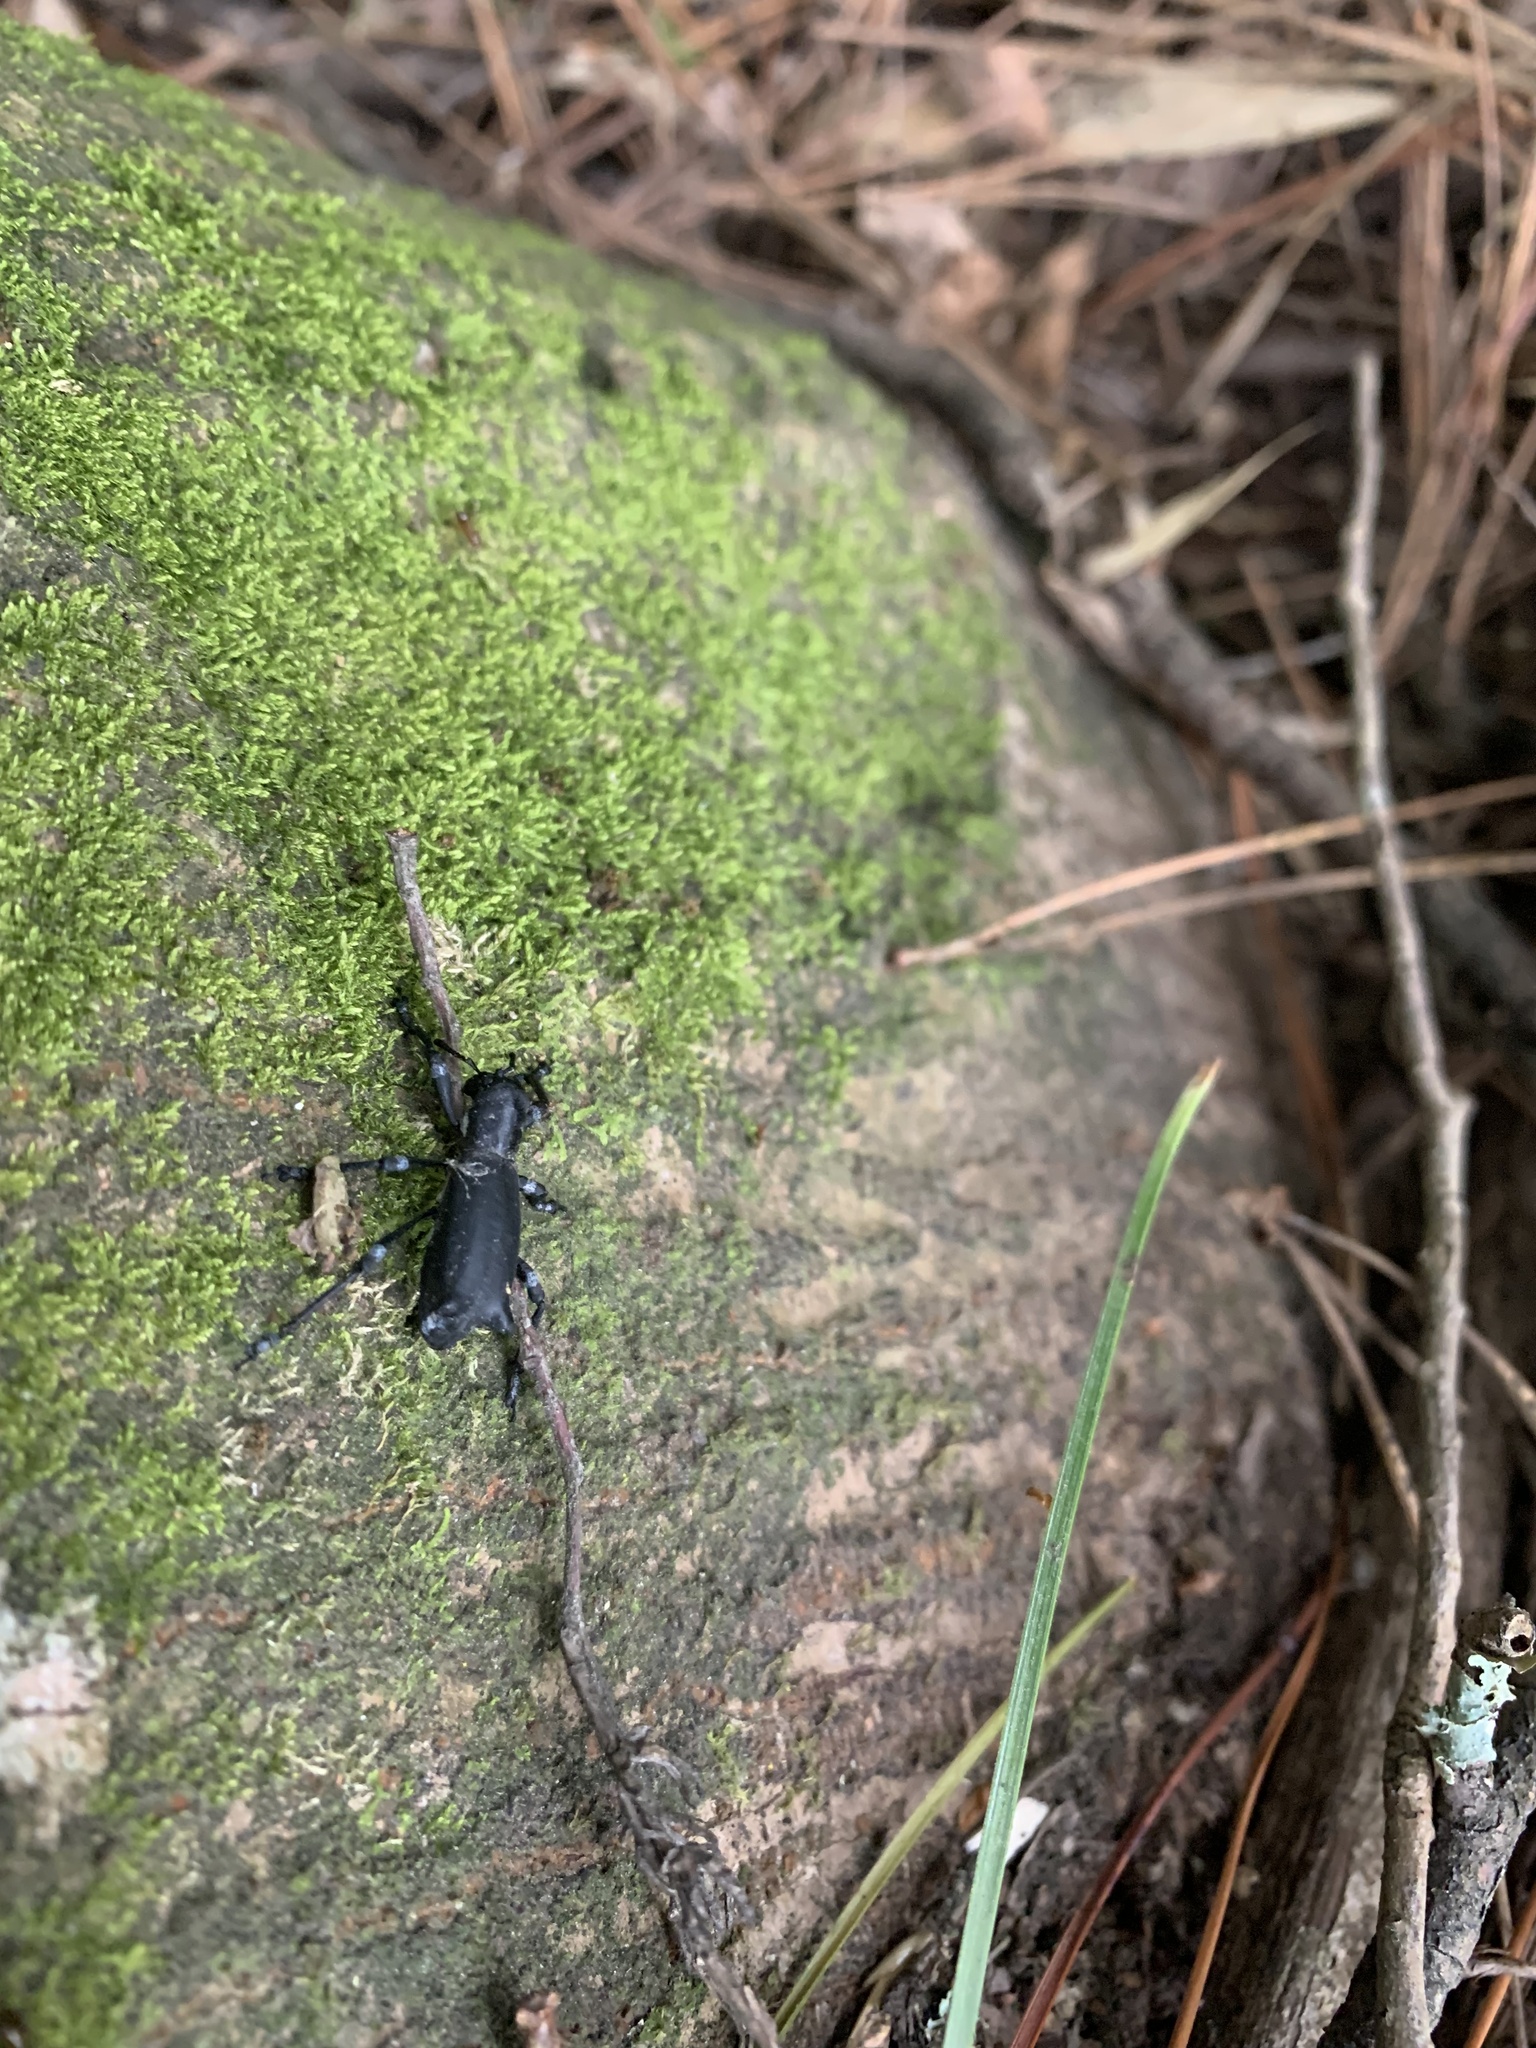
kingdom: Animalia
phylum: Arthropoda
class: Insecta
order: Coleoptera
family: Curculionidae
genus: Aegorhinus
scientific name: Aegorhinus
